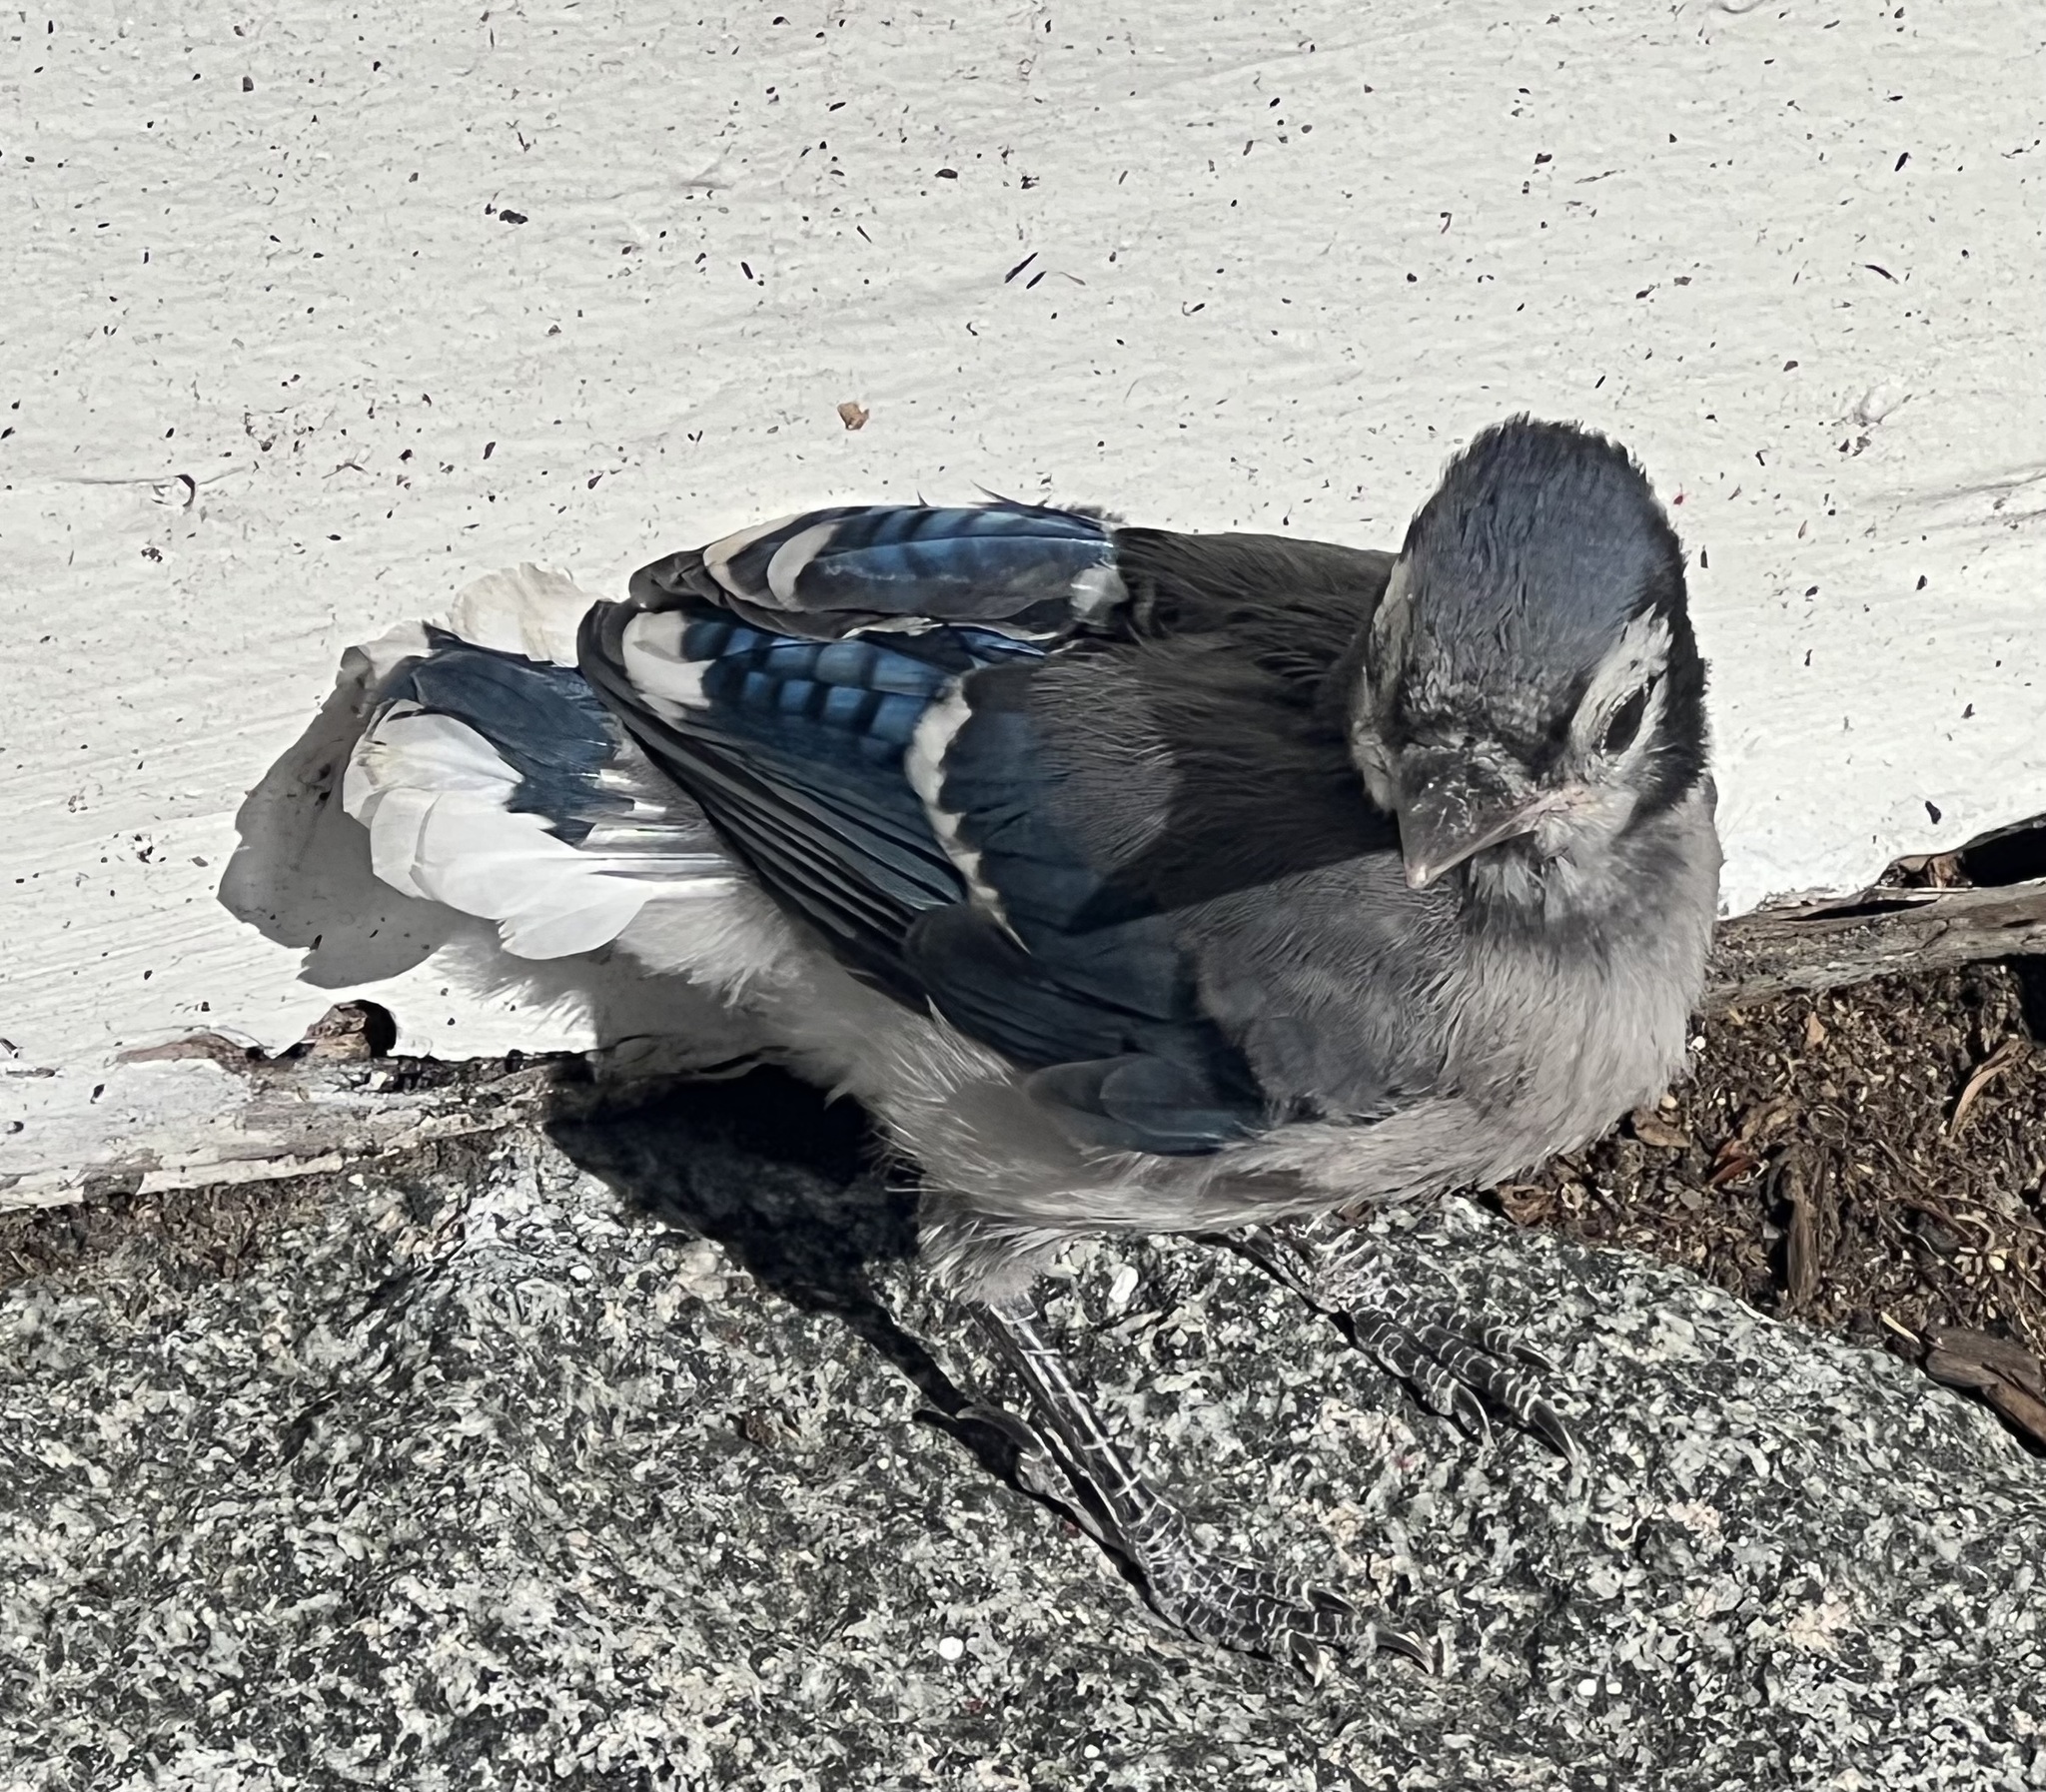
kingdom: Animalia
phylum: Chordata
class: Aves
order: Passeriformes
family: Corvidae
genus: Cyanocitta
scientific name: Cyanocitta cristata
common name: Blue jay
